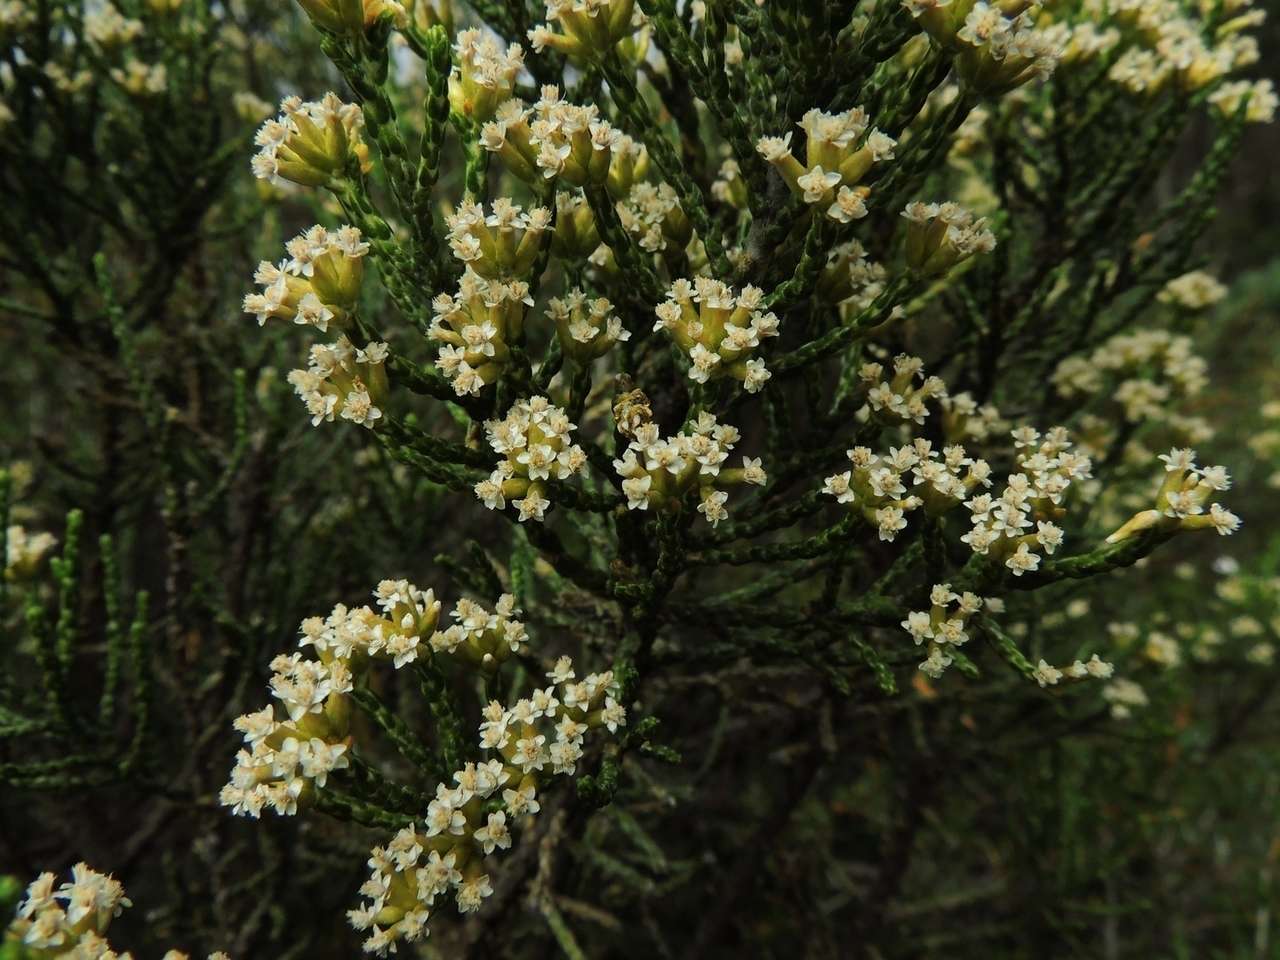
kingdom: Plantae
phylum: Tracheophyta
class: Magnoliopsida
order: Asterales
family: Asteraceae
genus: Ozothamnus
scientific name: Ozothamnus cupressoides
